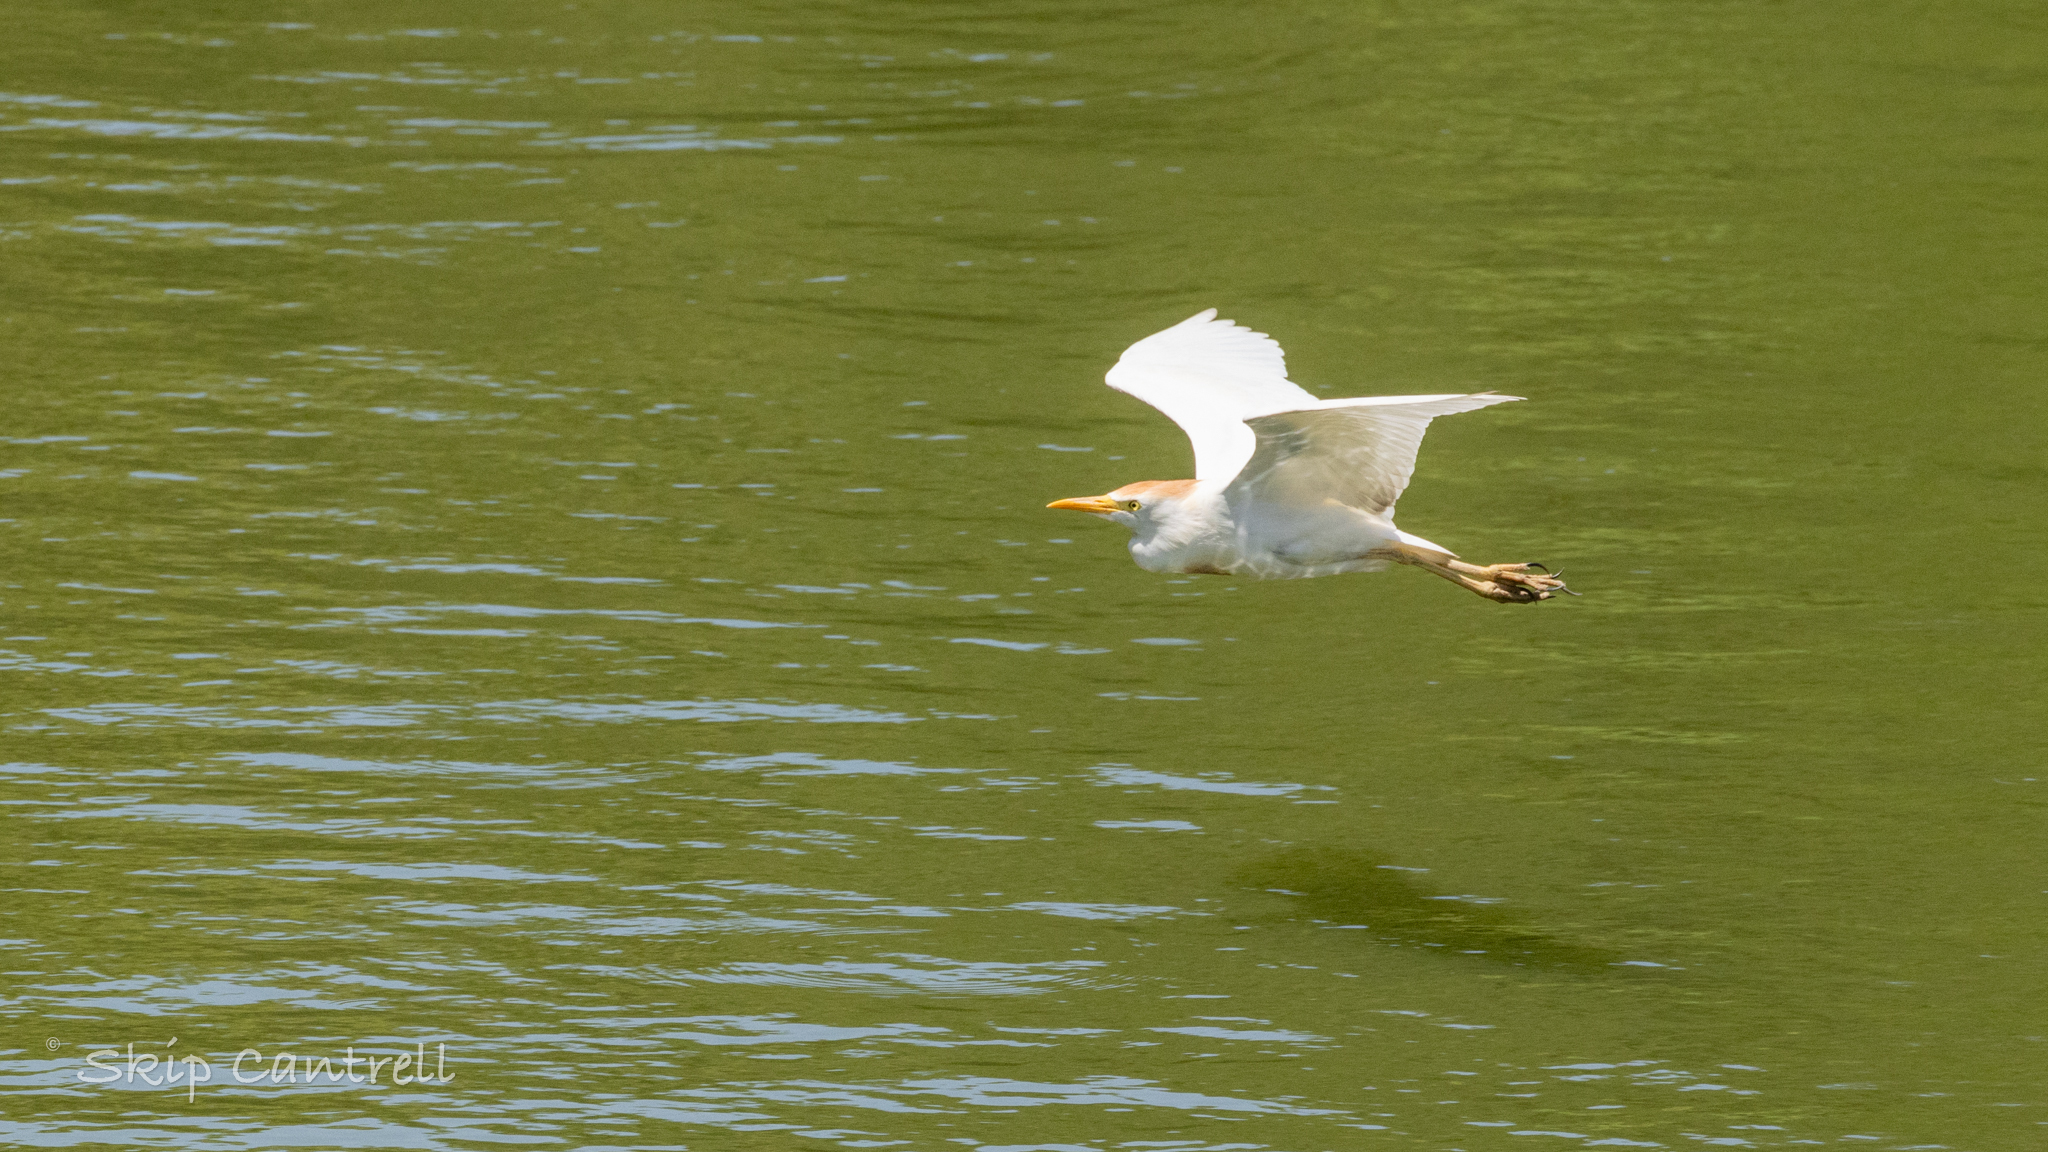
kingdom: Animalia
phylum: Chordata
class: Aves
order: Pelecaniformes
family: Ardeidae
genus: Bubulcus
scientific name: Bubulcus ibis
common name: Cattle egret
